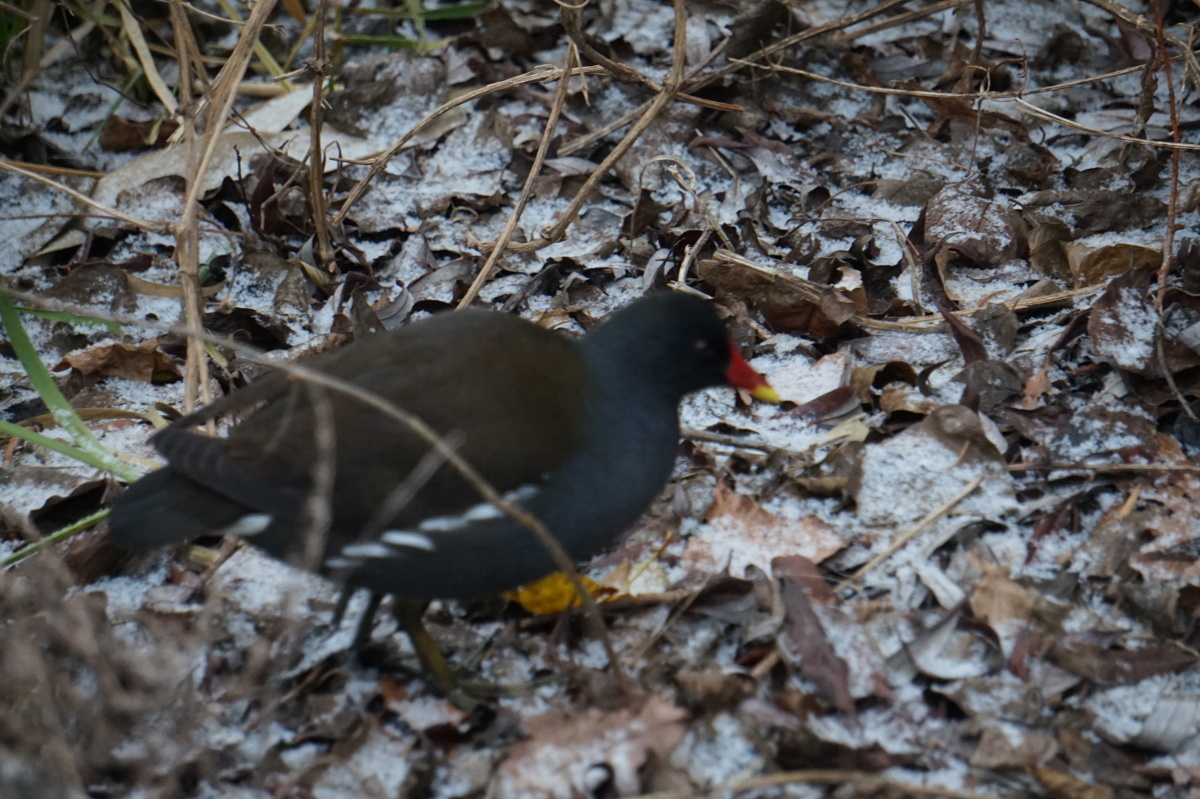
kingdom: Animalia
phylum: Chordata
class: Aves
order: Gruiformes
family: Rallidae
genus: Gallinula
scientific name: Gallinula chloropus
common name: Common moorhen
